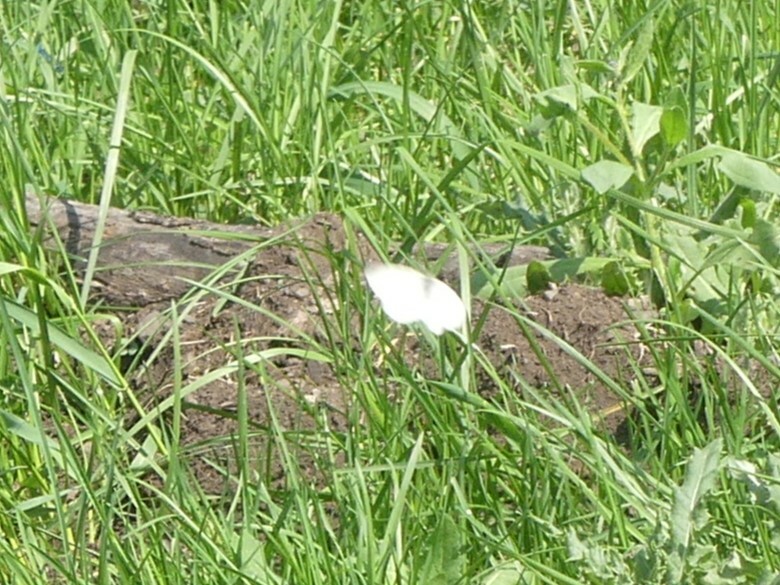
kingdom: Animalia
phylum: Arthropoda
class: Insecta
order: Lepidoptera
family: Pieridae
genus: Pieris
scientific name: Pieris rapae
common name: Small white
